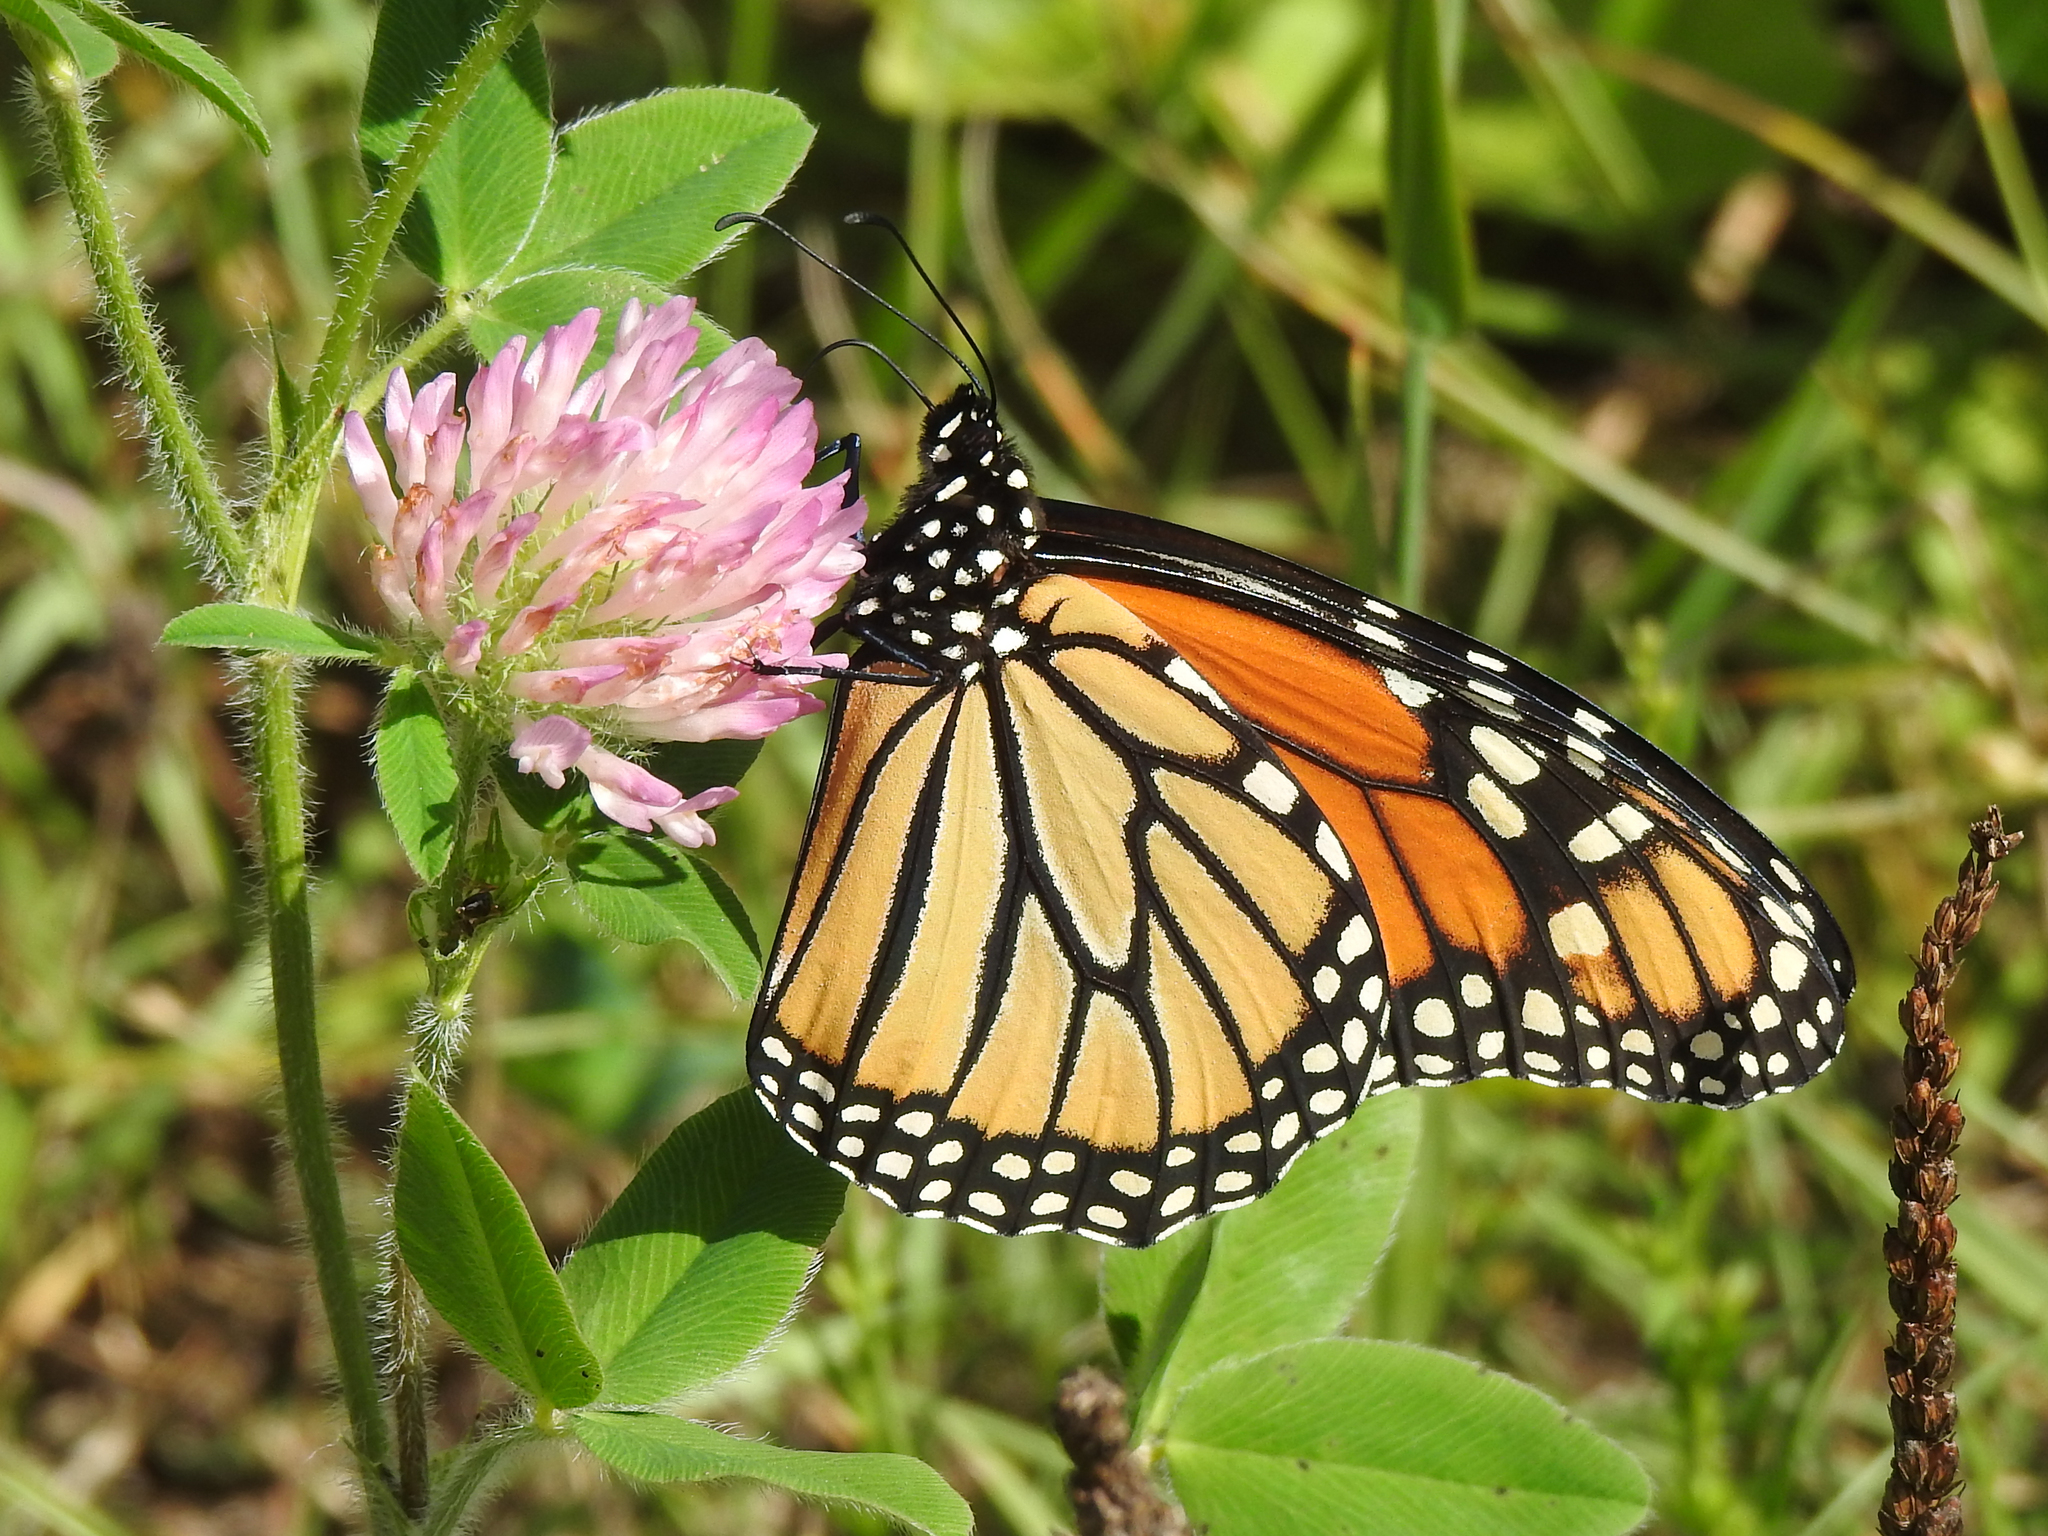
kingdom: Animalia
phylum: Arthropoda
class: Insecta
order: Lepidoptera
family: Nymphalidae
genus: Danaus
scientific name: Danaus plexippus
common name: Monarch
